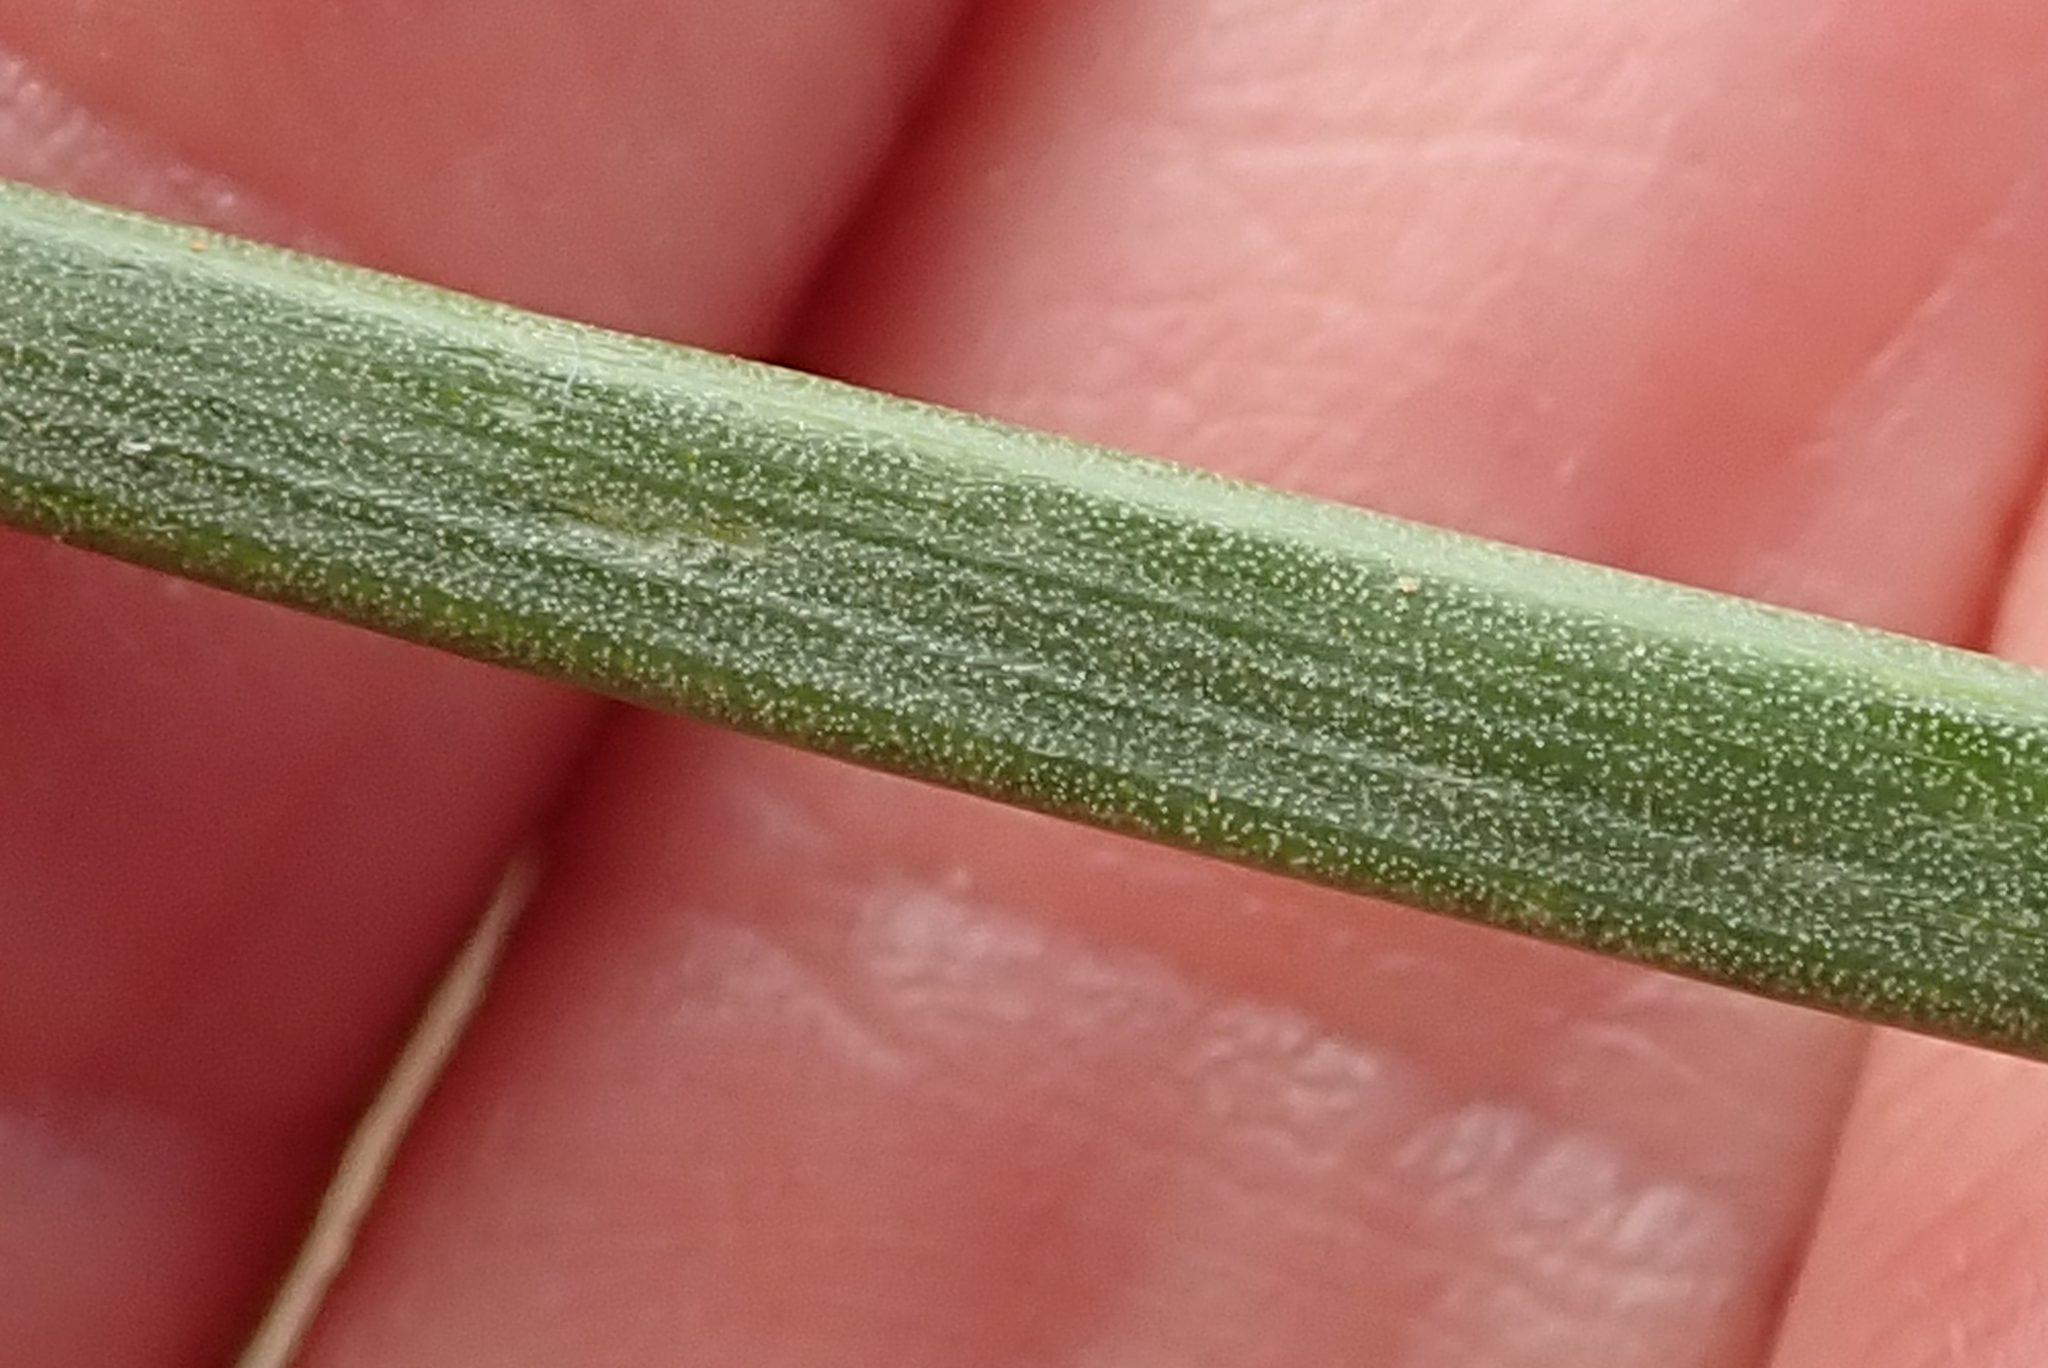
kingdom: Plantae
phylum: Tracheophyta
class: Liliopsida
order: Asparagales
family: Asphodelaceae
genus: Bulbine
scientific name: Bulbine abyssinica
